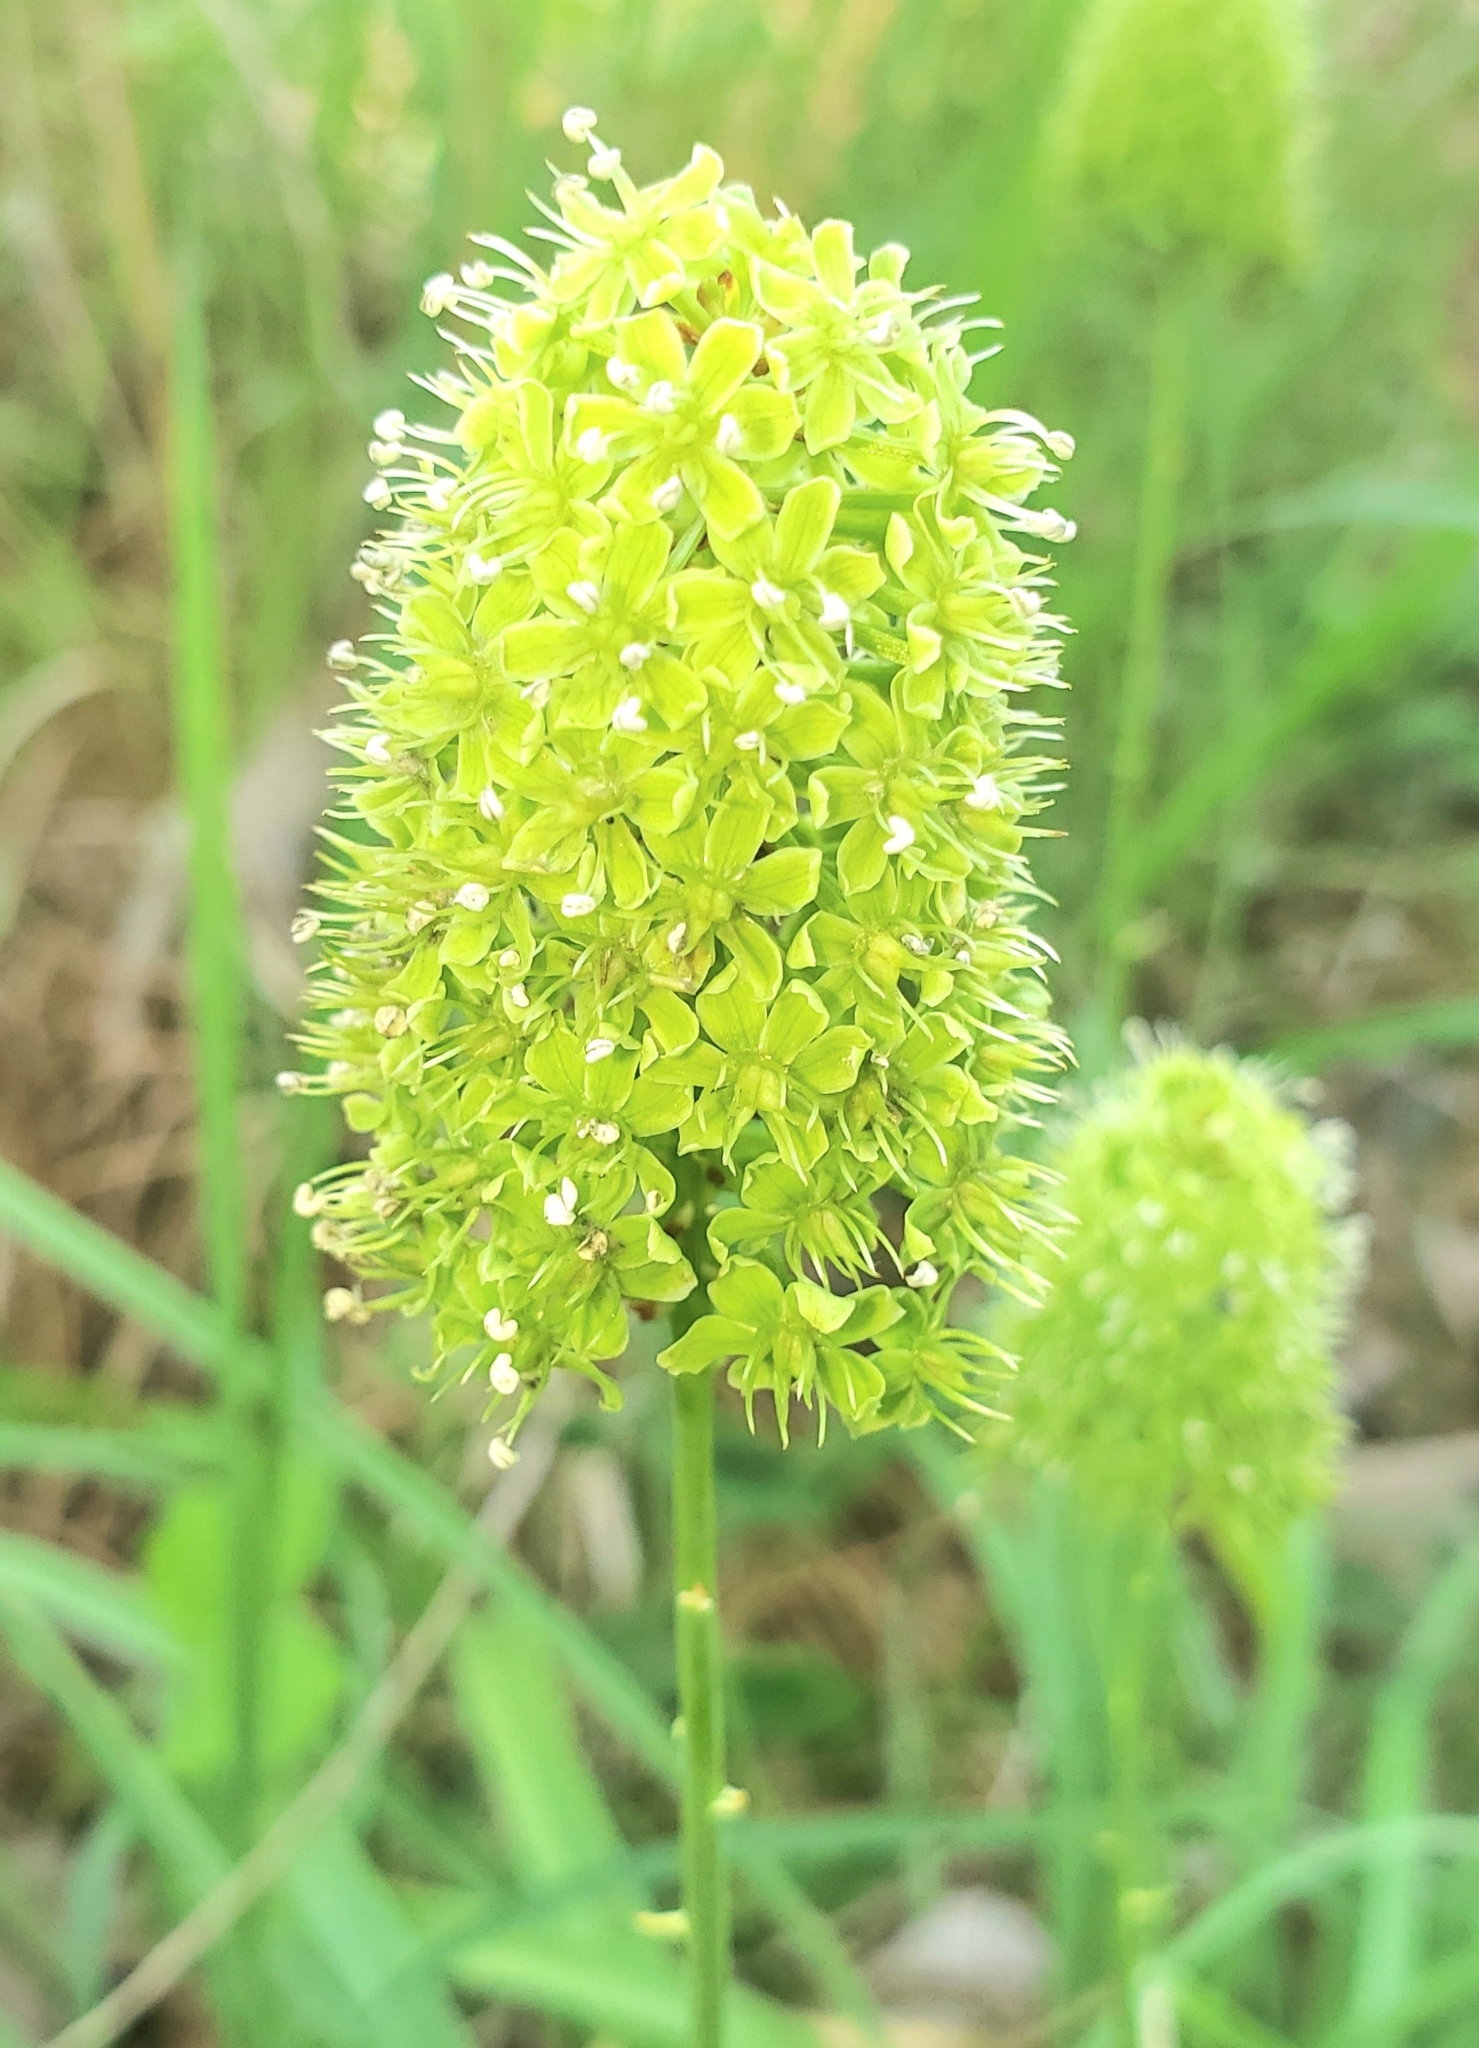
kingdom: Plantae
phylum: Tracheophyta
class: Liliopsida
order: Liliales
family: Melanthiaceae
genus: Amianthium
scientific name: Amianthium muscitoxicum
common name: Fly-poison
